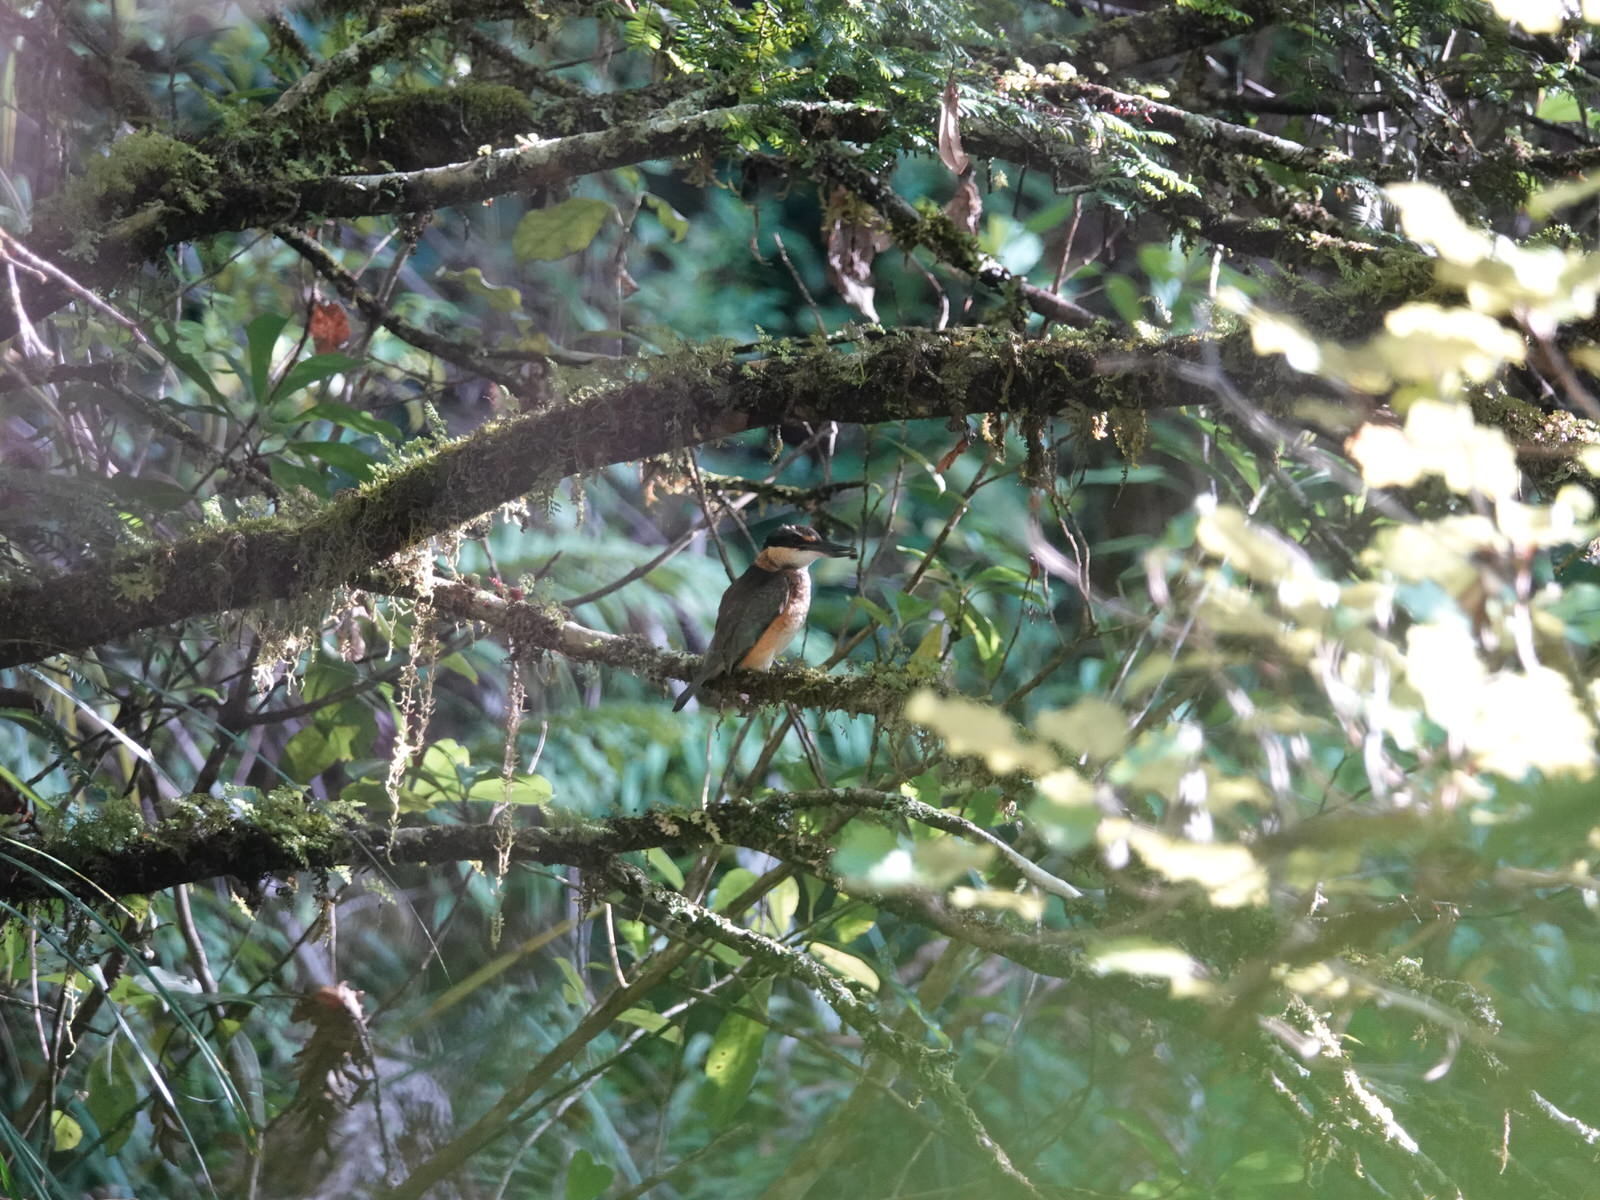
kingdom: Animalia
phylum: Chordata
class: Aves
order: Coraciiformes
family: Alcedinidae
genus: Todiramphus
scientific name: Todiramphus sanctus
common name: Sacred kingfisher
